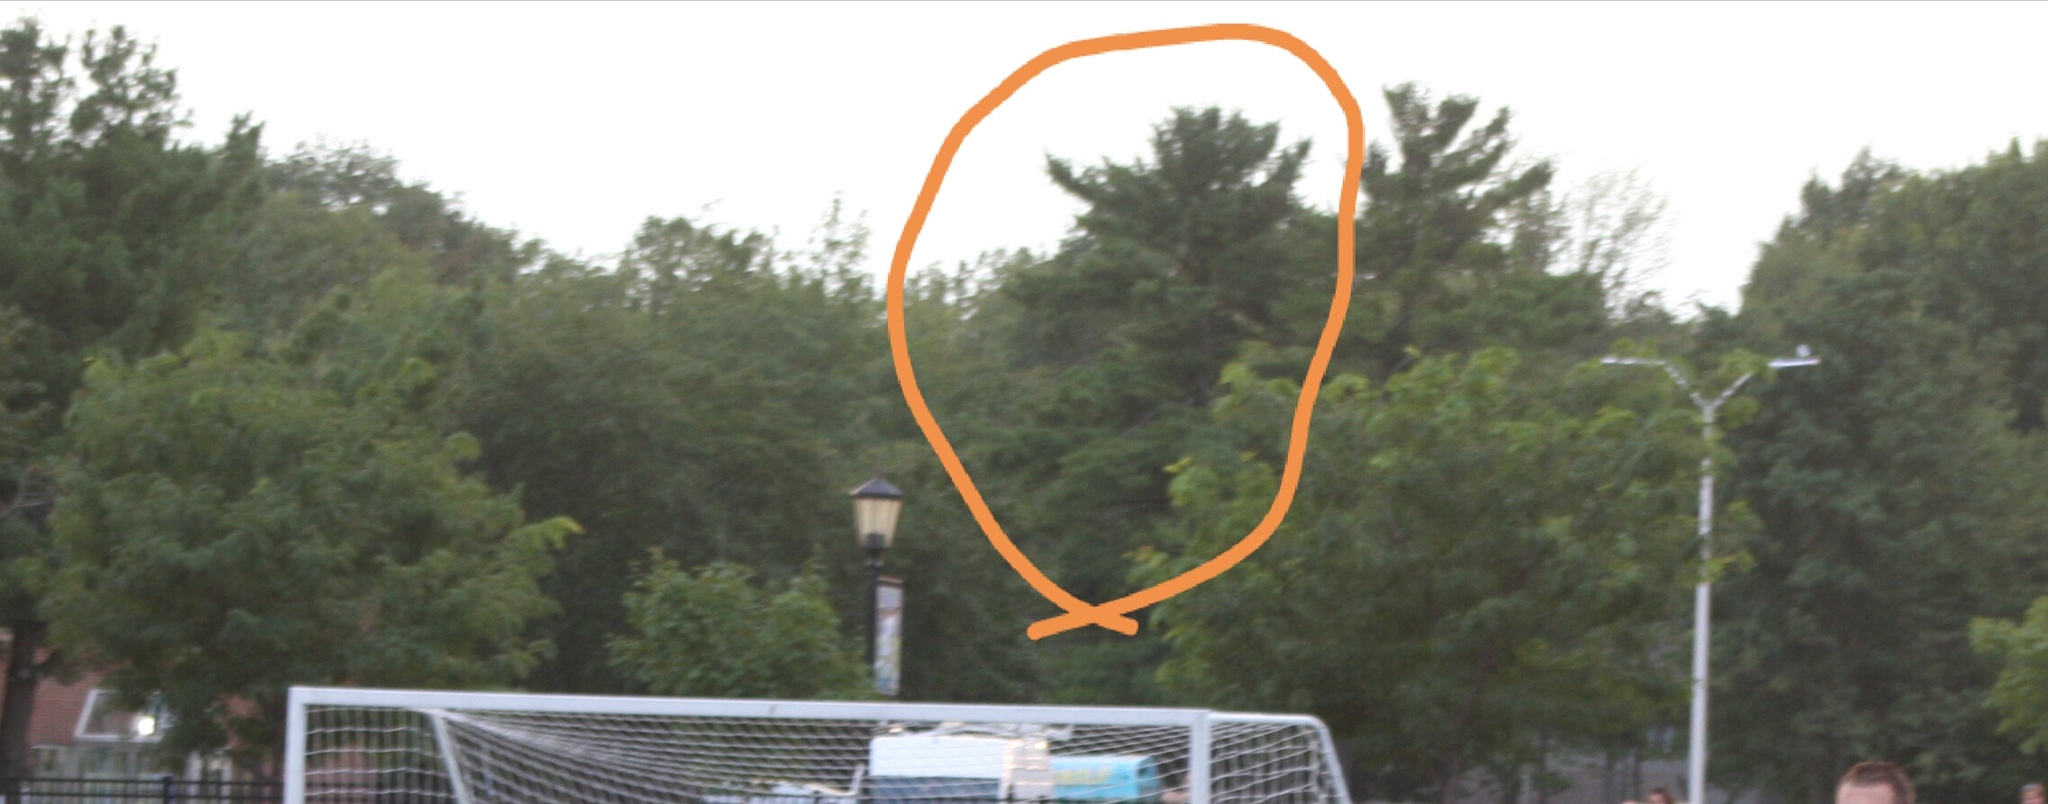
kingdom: Plantae
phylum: Tracheophyta
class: Pinopsida
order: Pinales
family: Pinaceae
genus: Pinus
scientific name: Pinus strobus
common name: Weymouth pine
